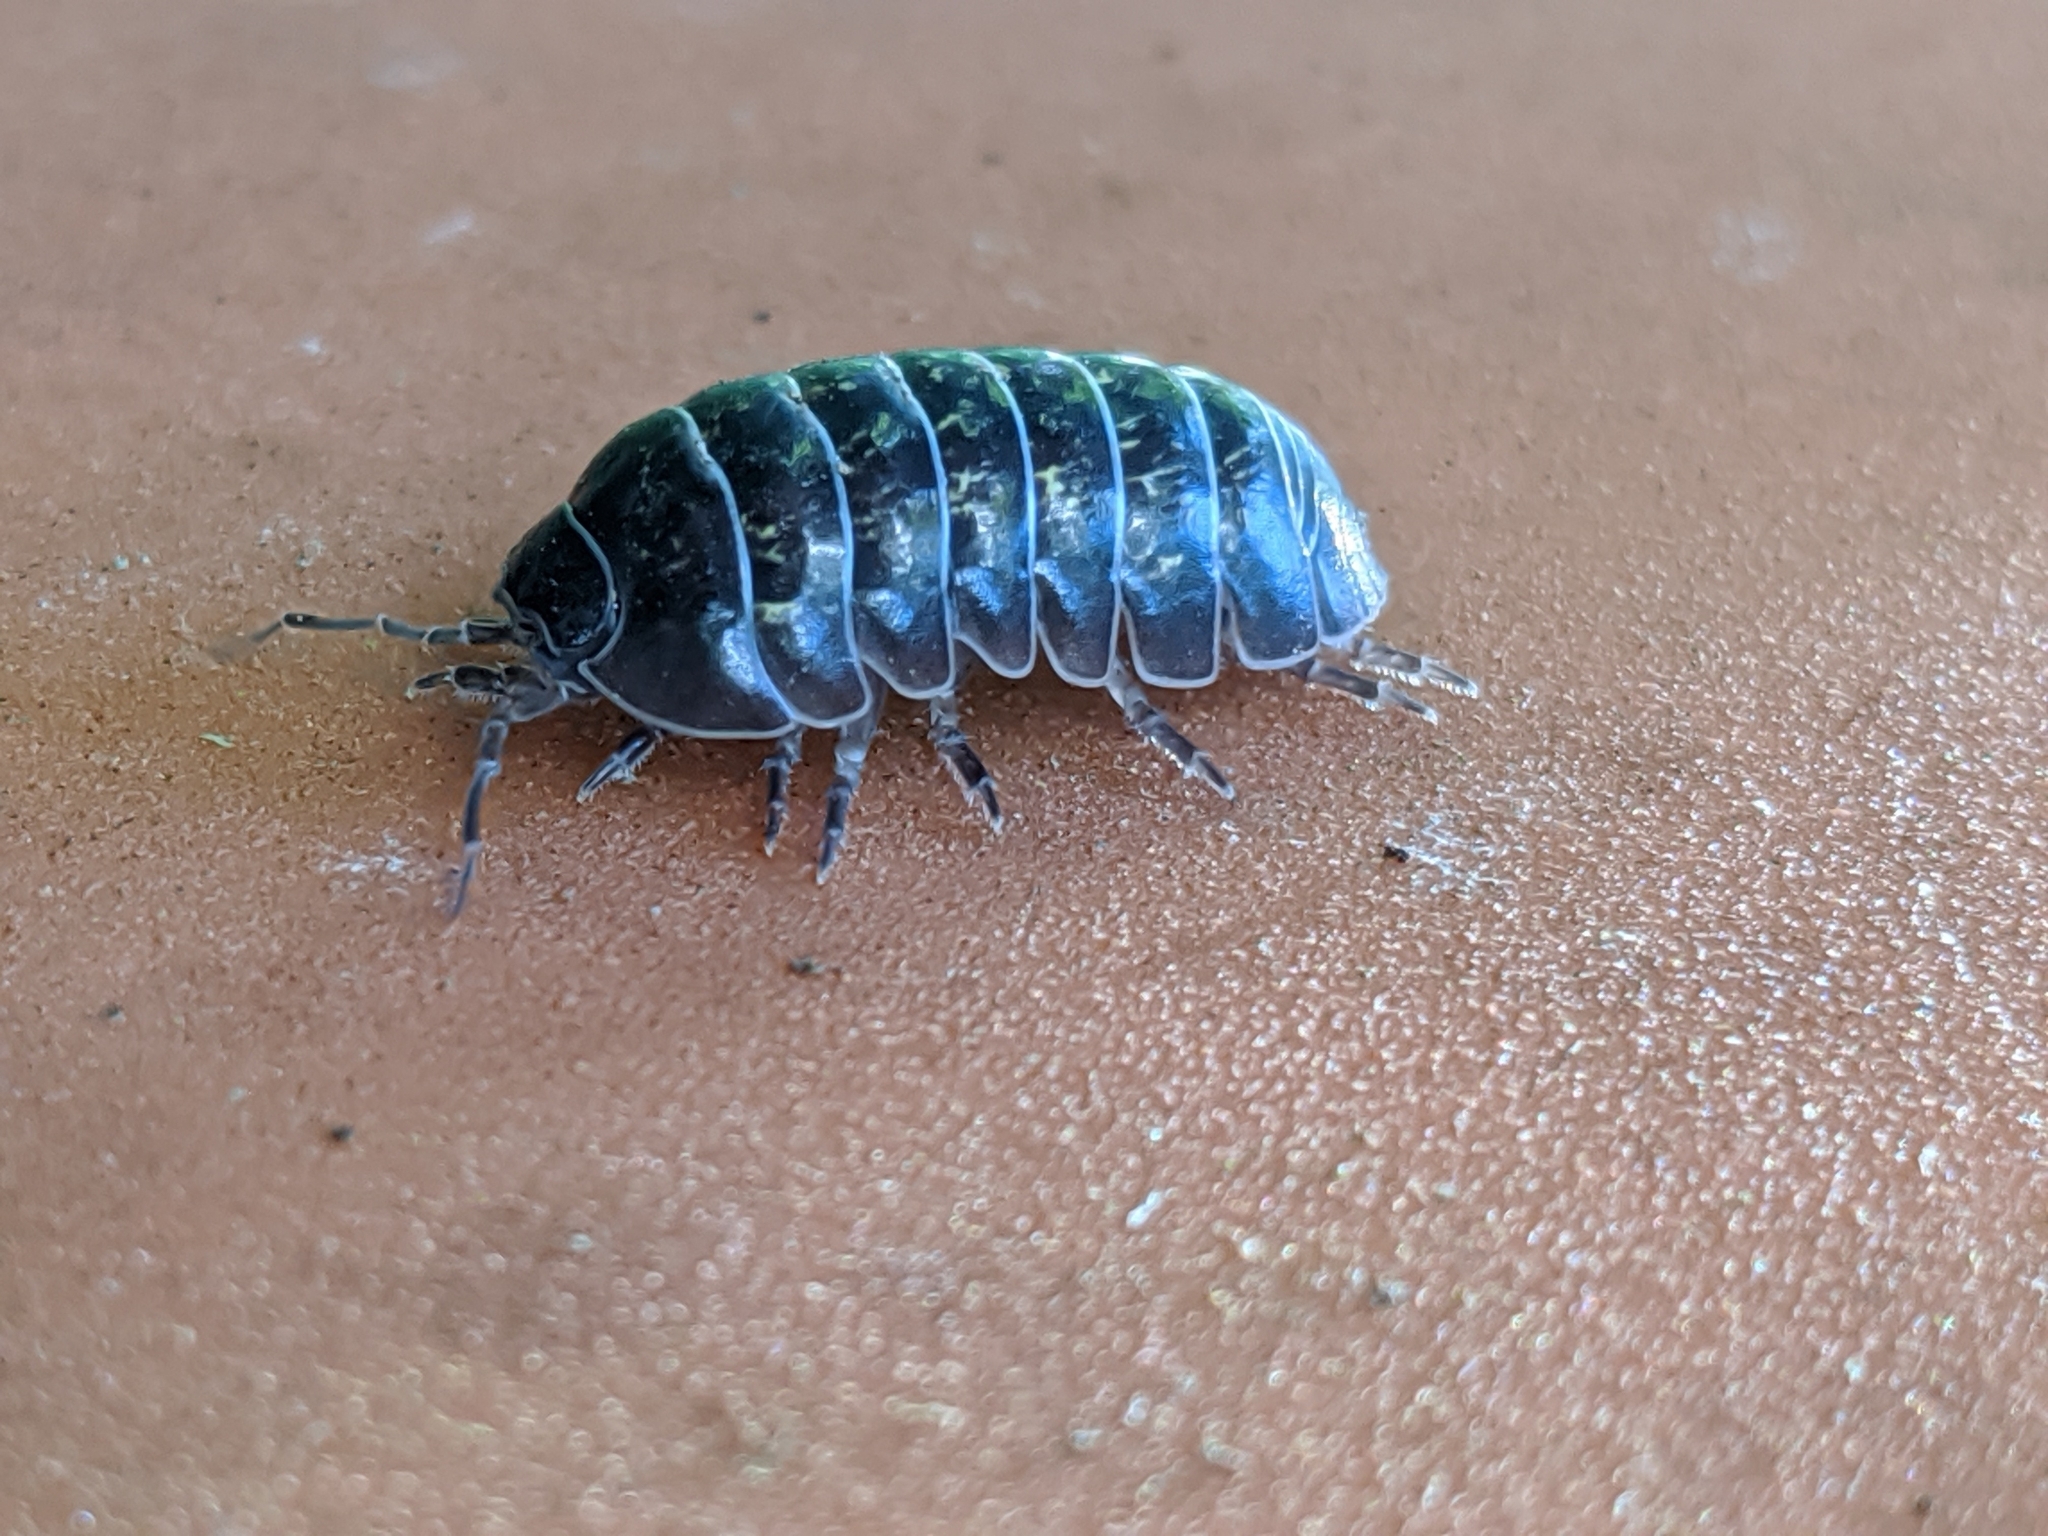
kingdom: Animalia
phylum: Arthropoda
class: Malacostraca
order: Isopoda
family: Armadillidiidae
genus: Armadillidium
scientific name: Armadillidium vulgare
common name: Common pill woodlouse
